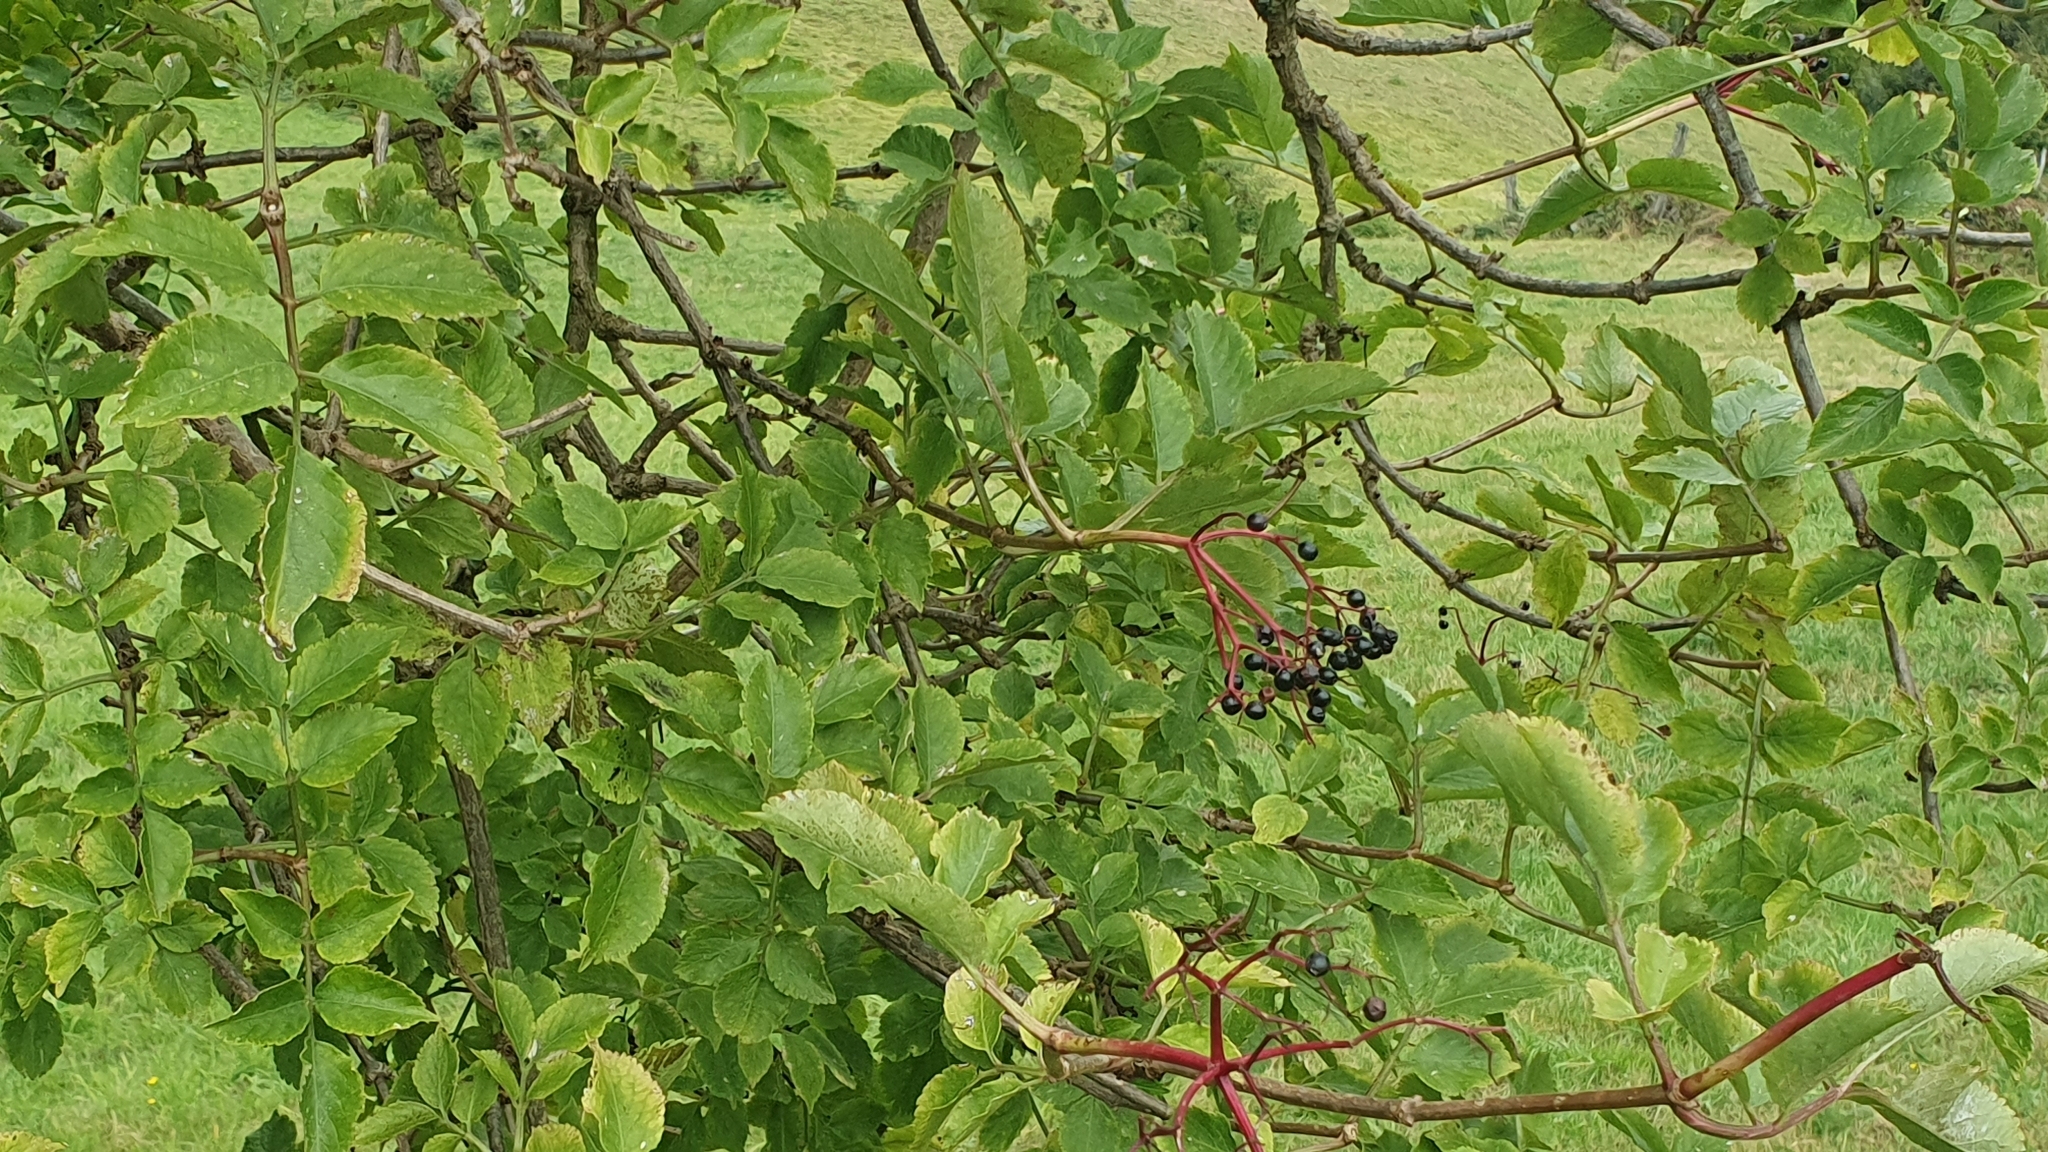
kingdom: Plantae
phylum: Tracheophyta
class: Magnoliopsida
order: Dipsacales
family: Viburnaceae
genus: Sambucus
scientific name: Sambucus nigra
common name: Elder
